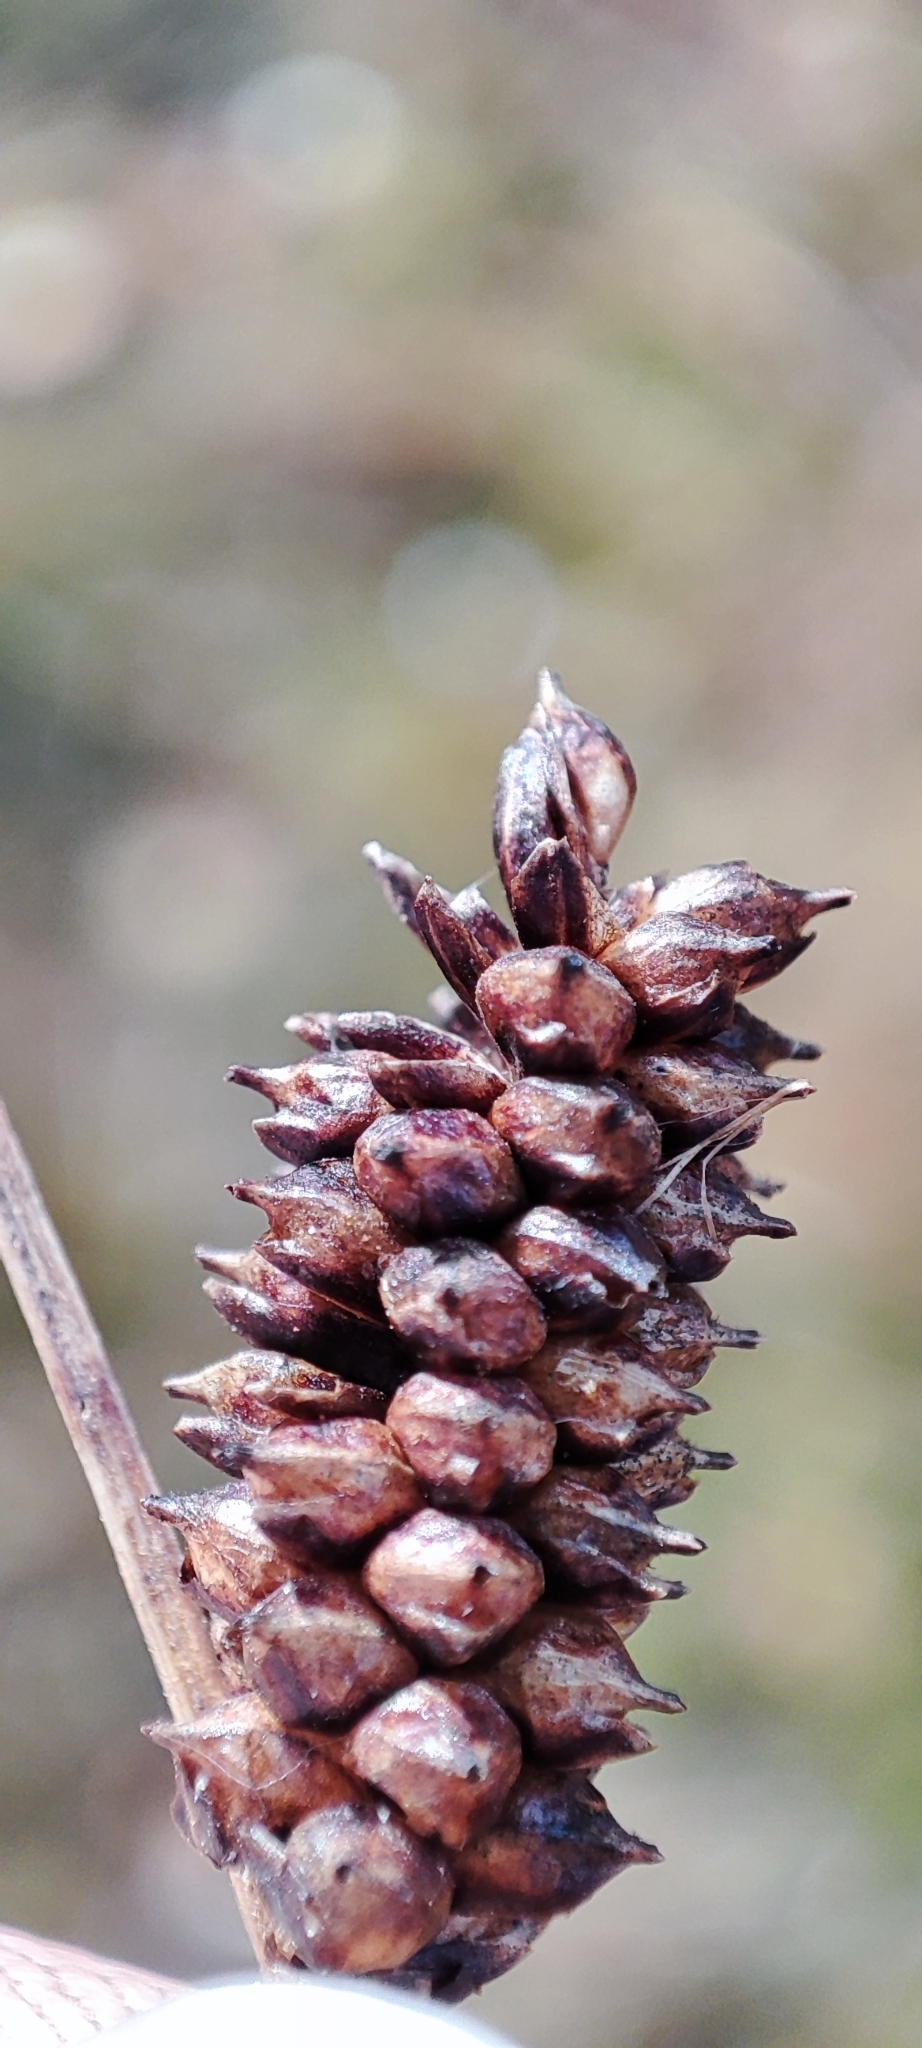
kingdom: Plantae
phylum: Tracheophyta
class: Liliopsida
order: Poales
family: Cyperaceae
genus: Carex
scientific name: Carex rotundata
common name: Round-fruited sedge
